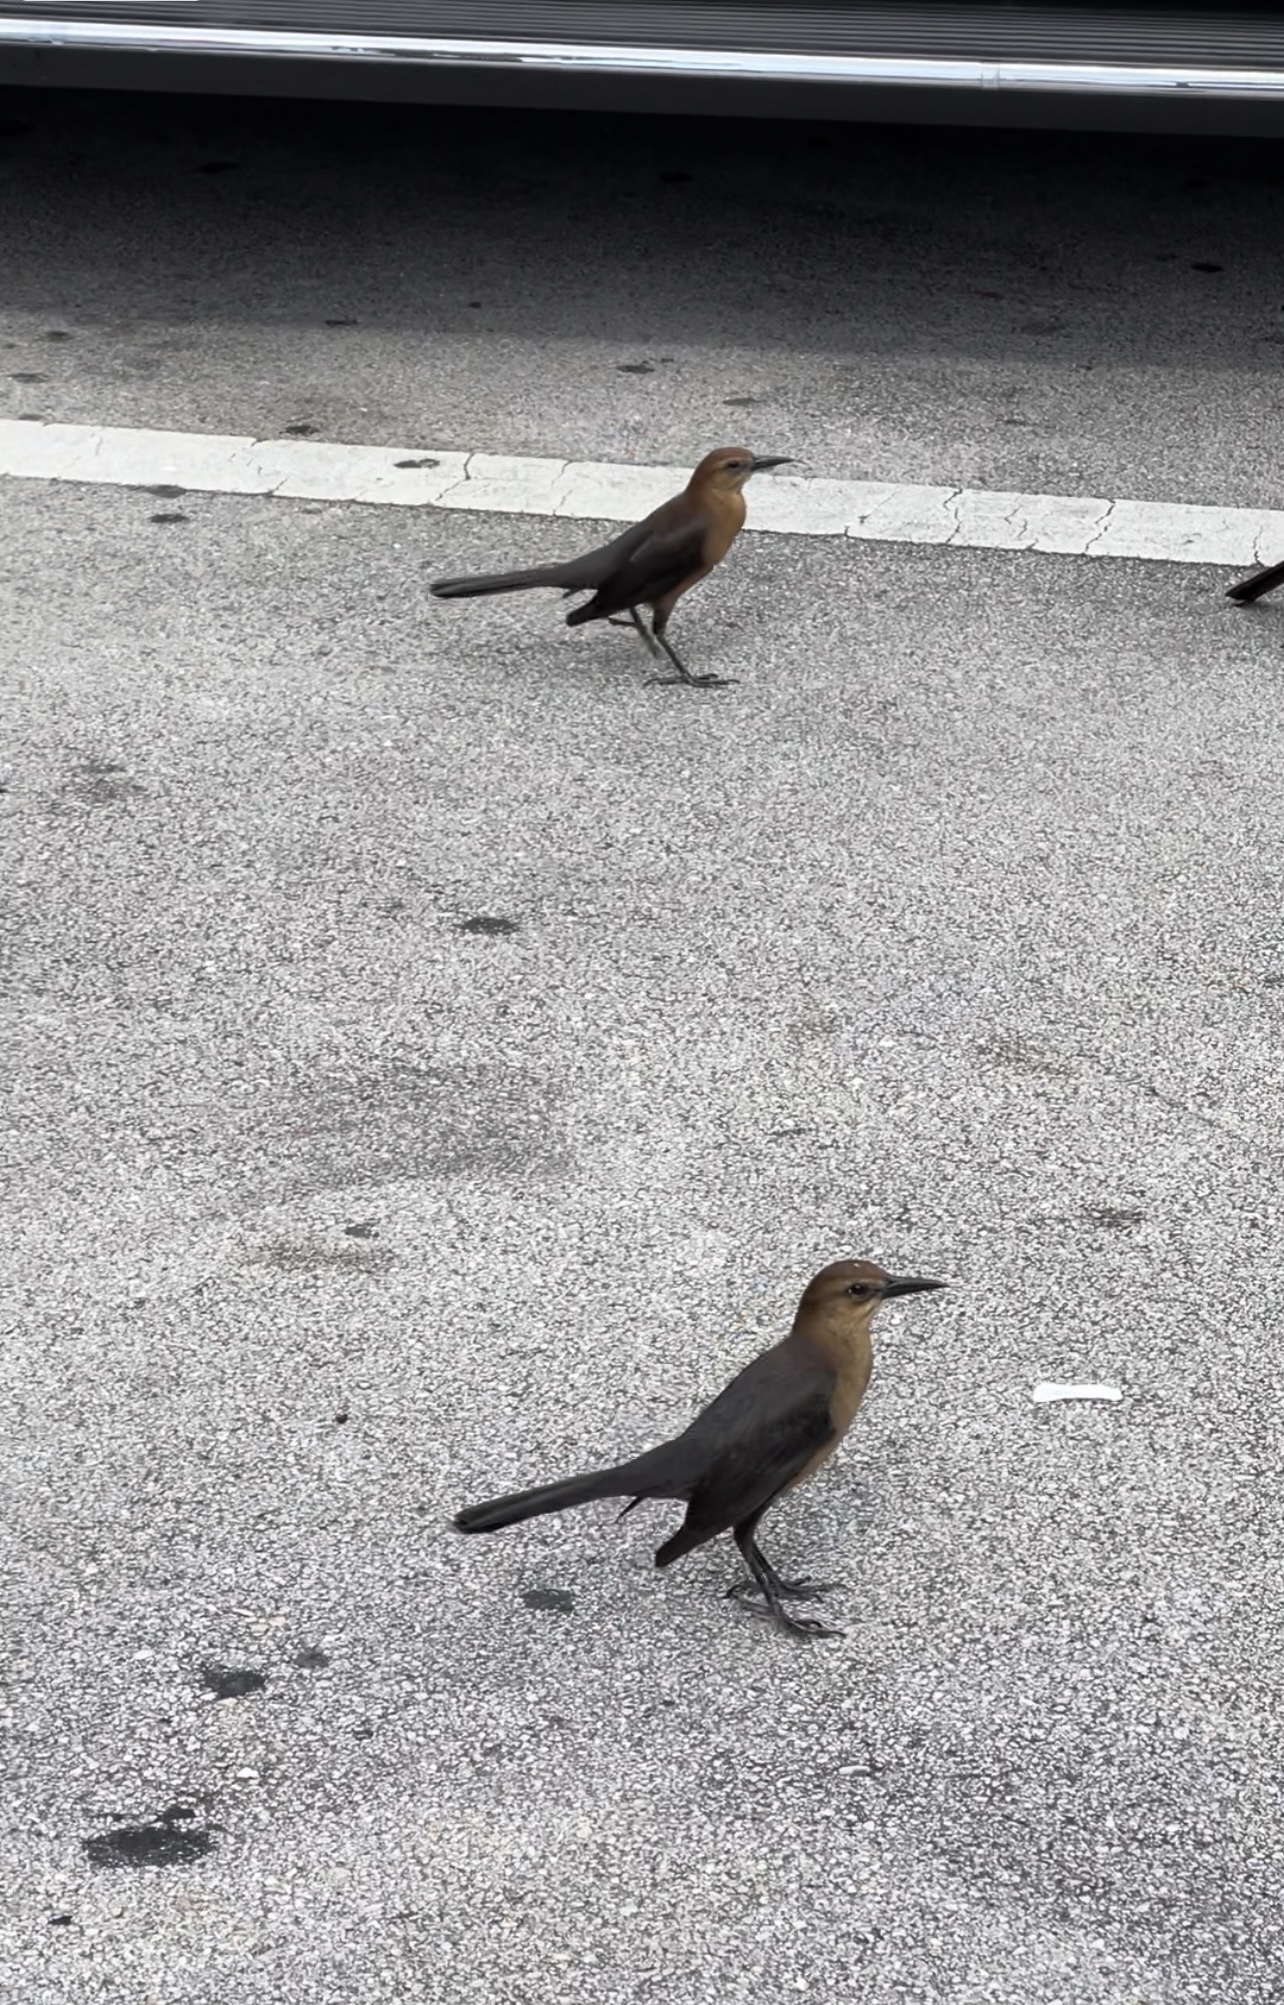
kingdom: Animalia
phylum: Chordata
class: Aves
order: Passeriformes
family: Icteridae
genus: Quiscalus
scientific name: Quiscalus major
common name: Boat-tailed grackle
